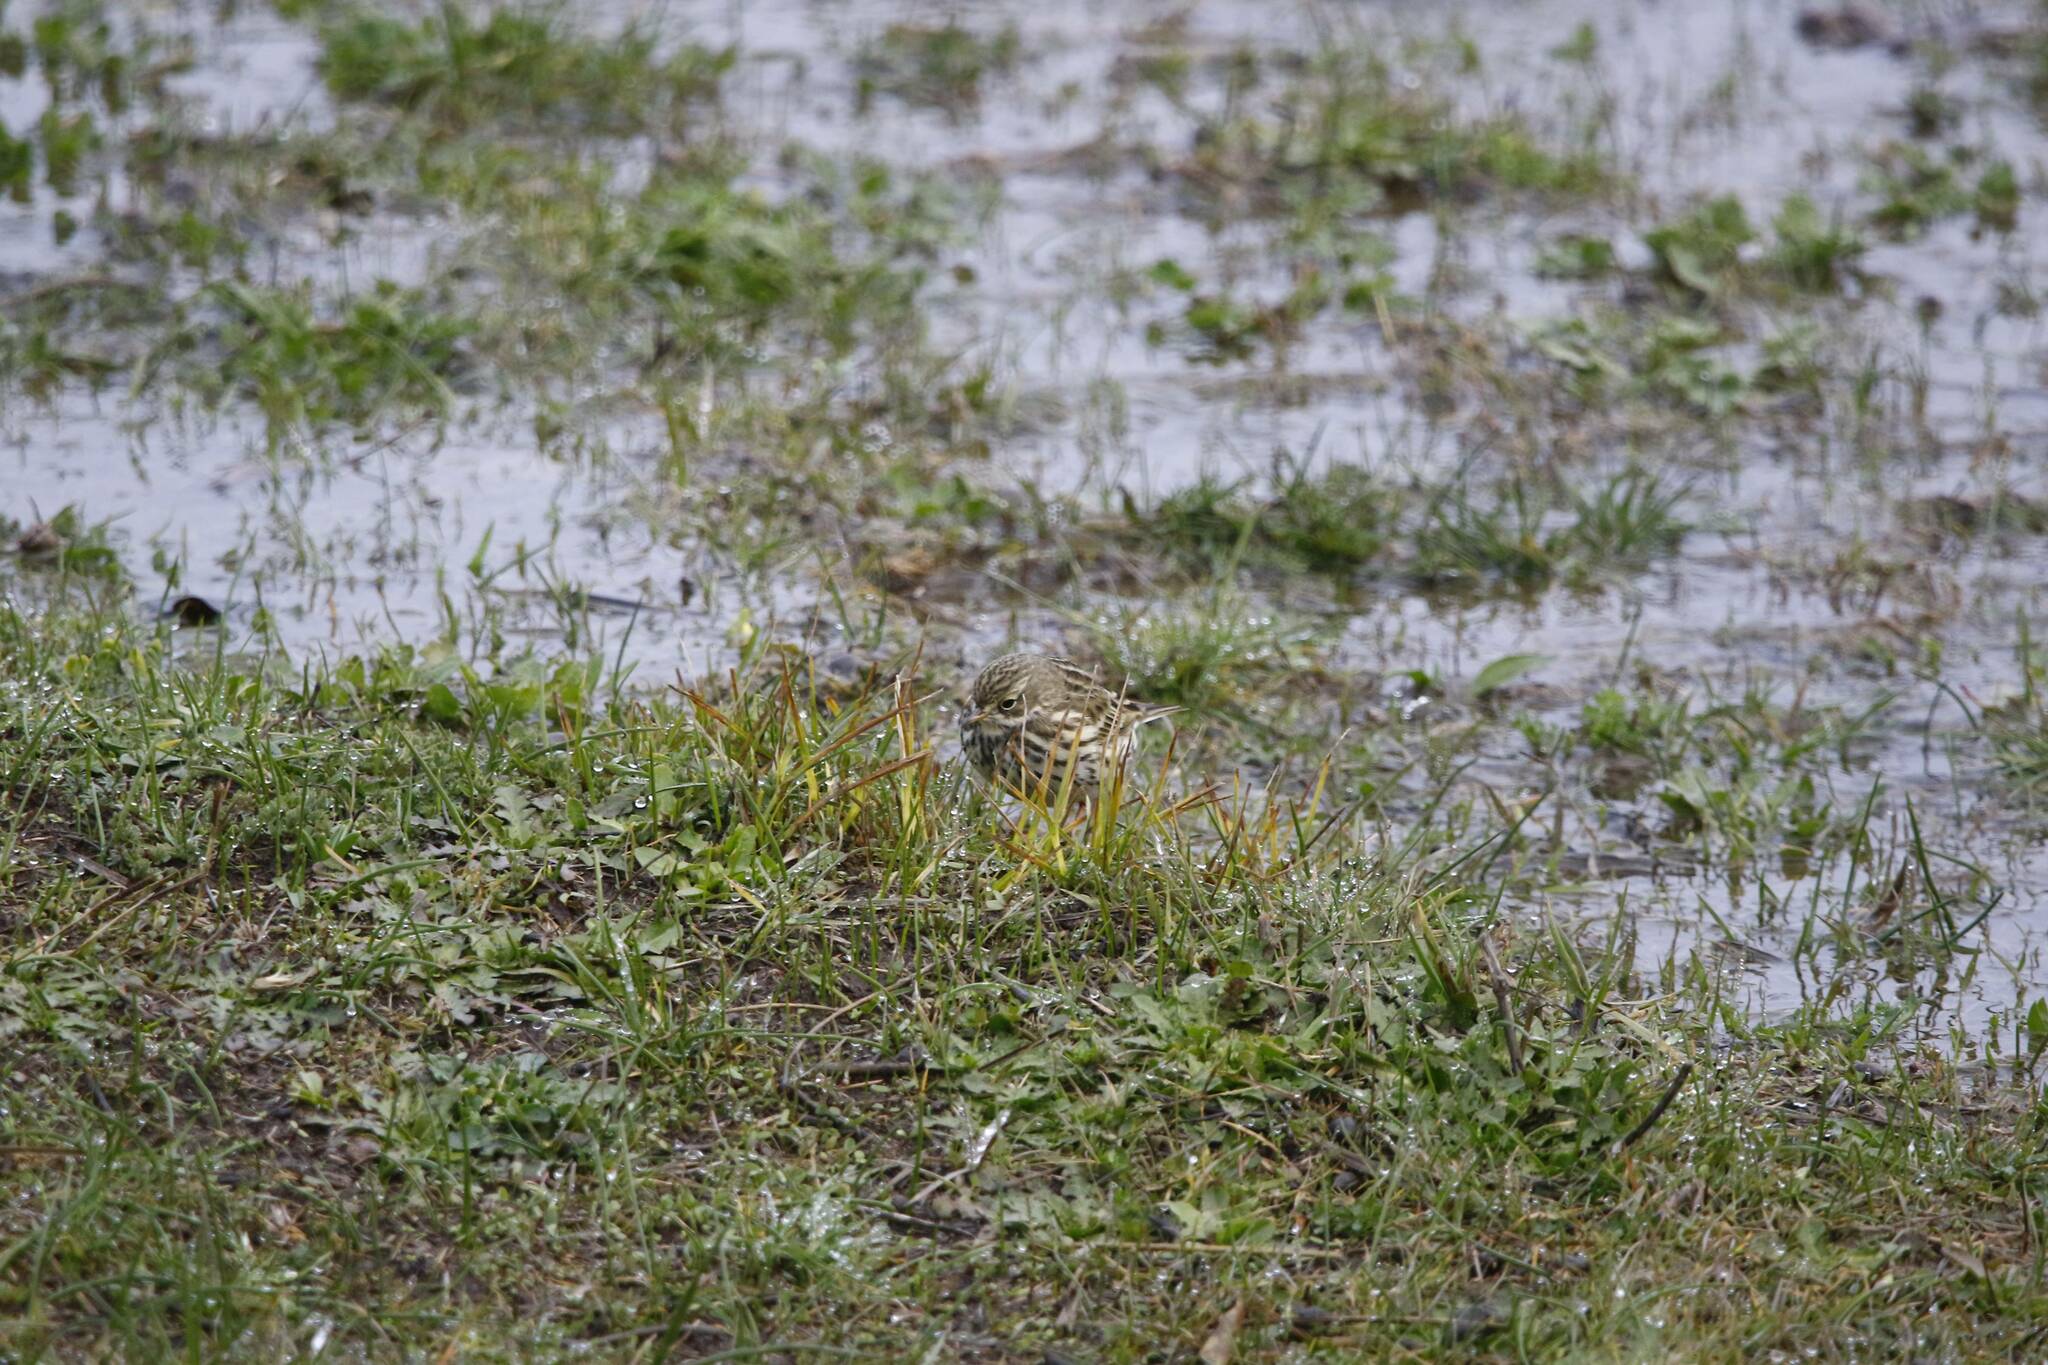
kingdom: Animalia
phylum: Chordata
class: Aves
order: Passeriformes
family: Motacillidae
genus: Anthus
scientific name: Anthus pratensis
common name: Meadow pipit
